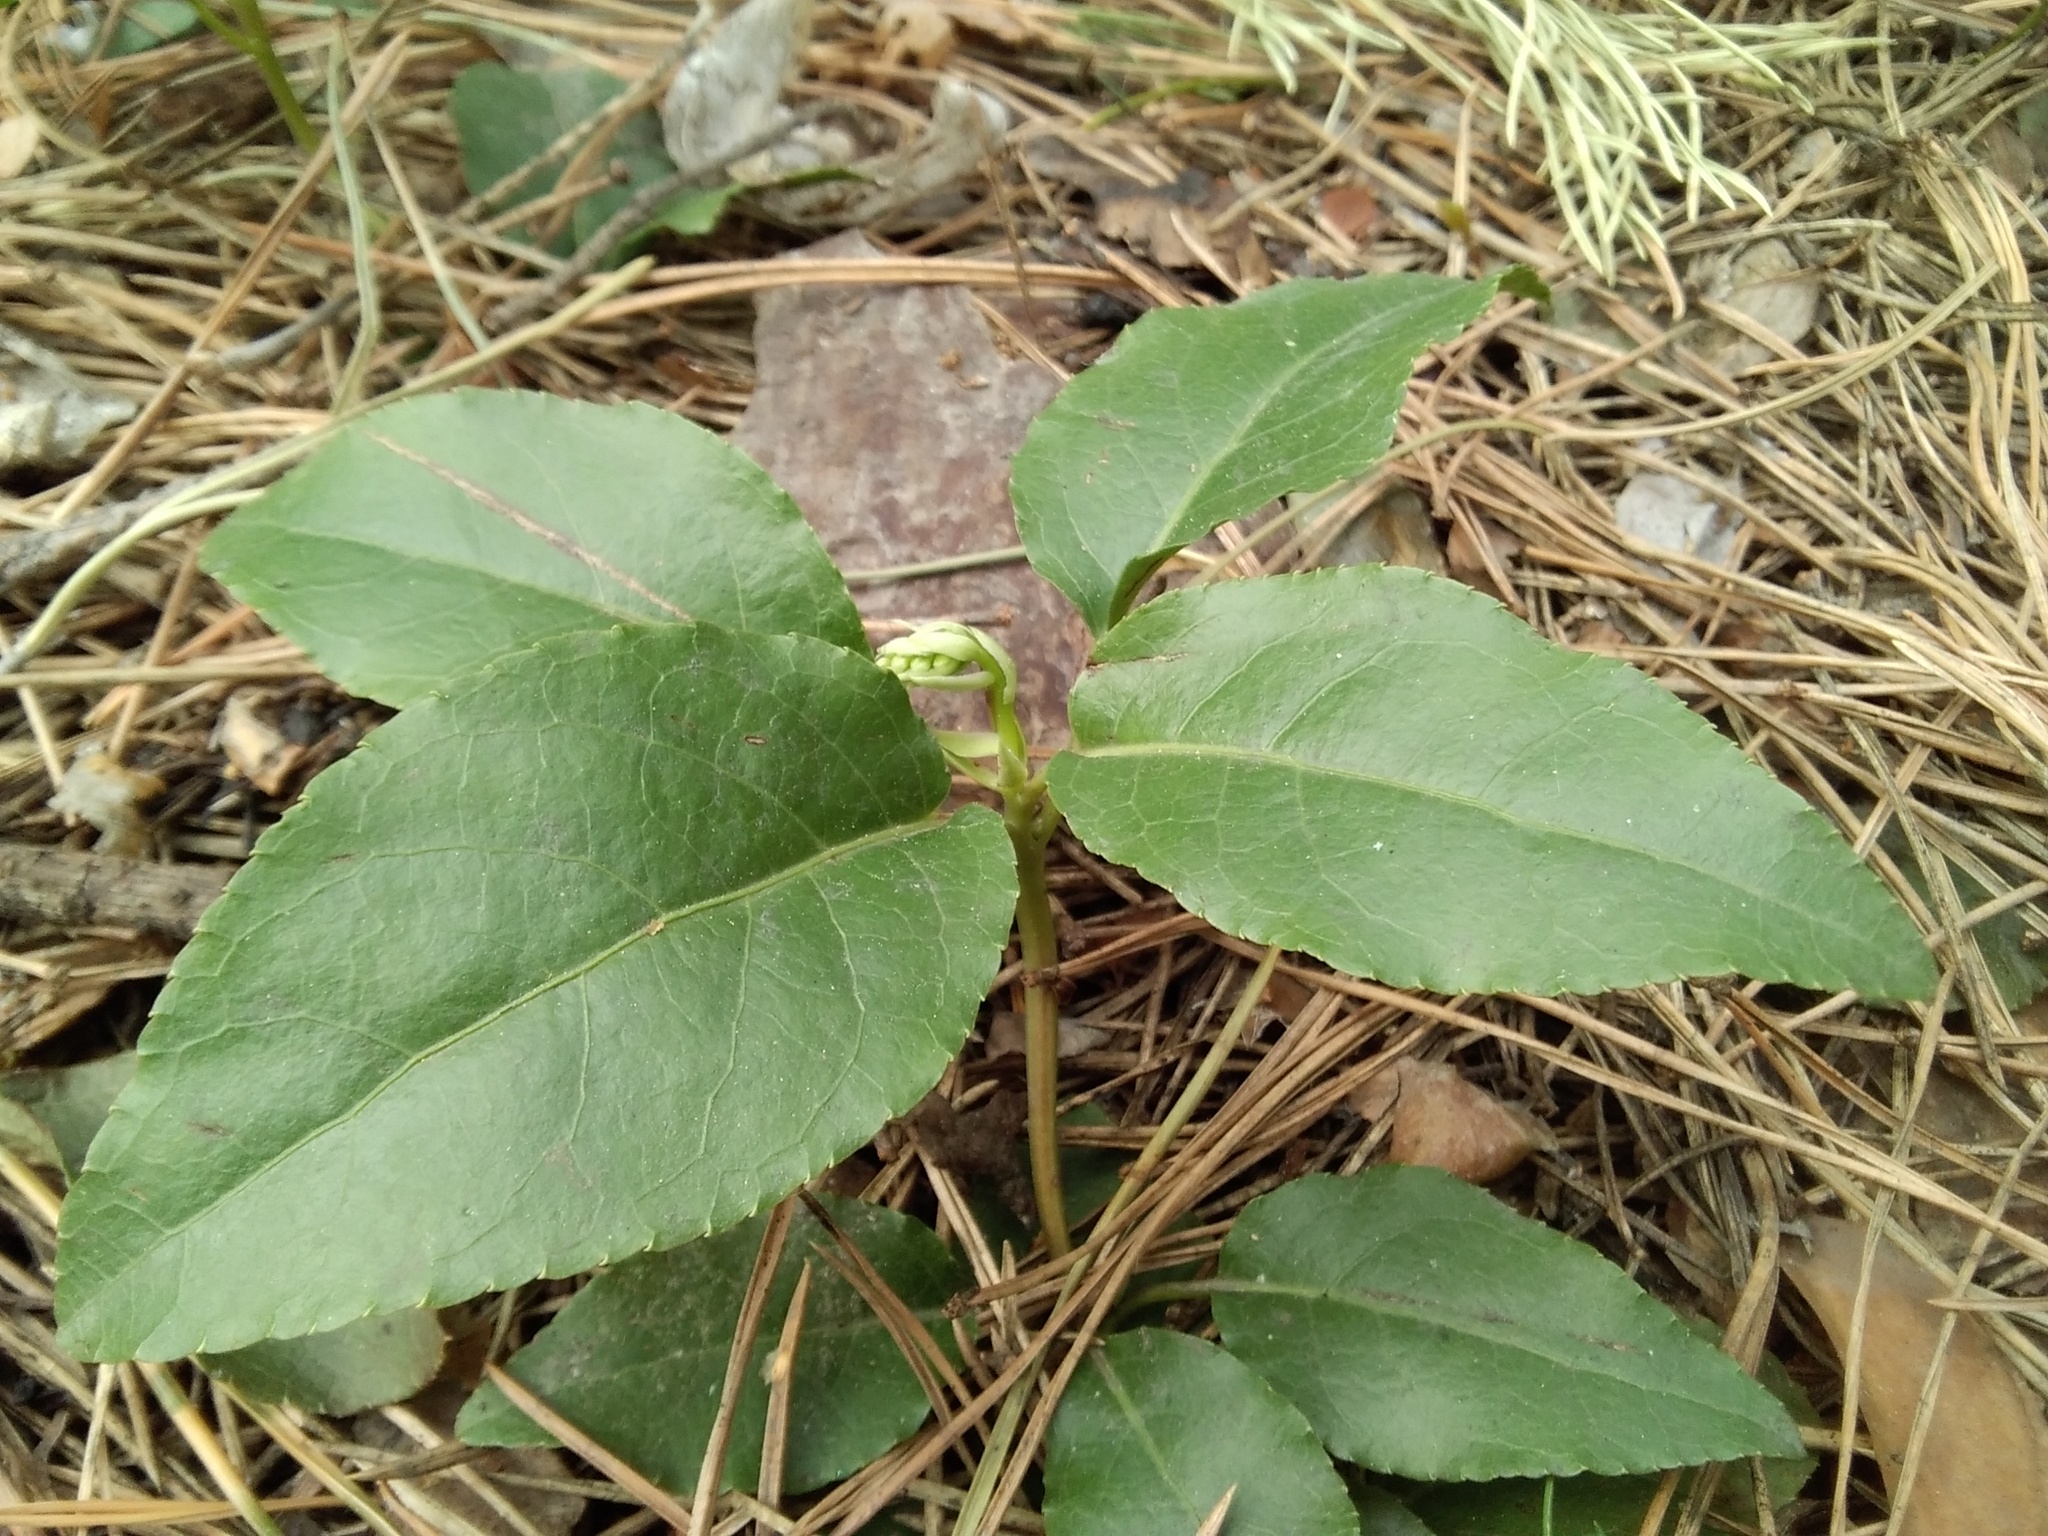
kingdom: Plantae
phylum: Tracheophyta
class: Magnoliopsida
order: Ericales
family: Ericaceae
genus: Orthilia
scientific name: Orthilia secunda
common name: One-sided orthilia
